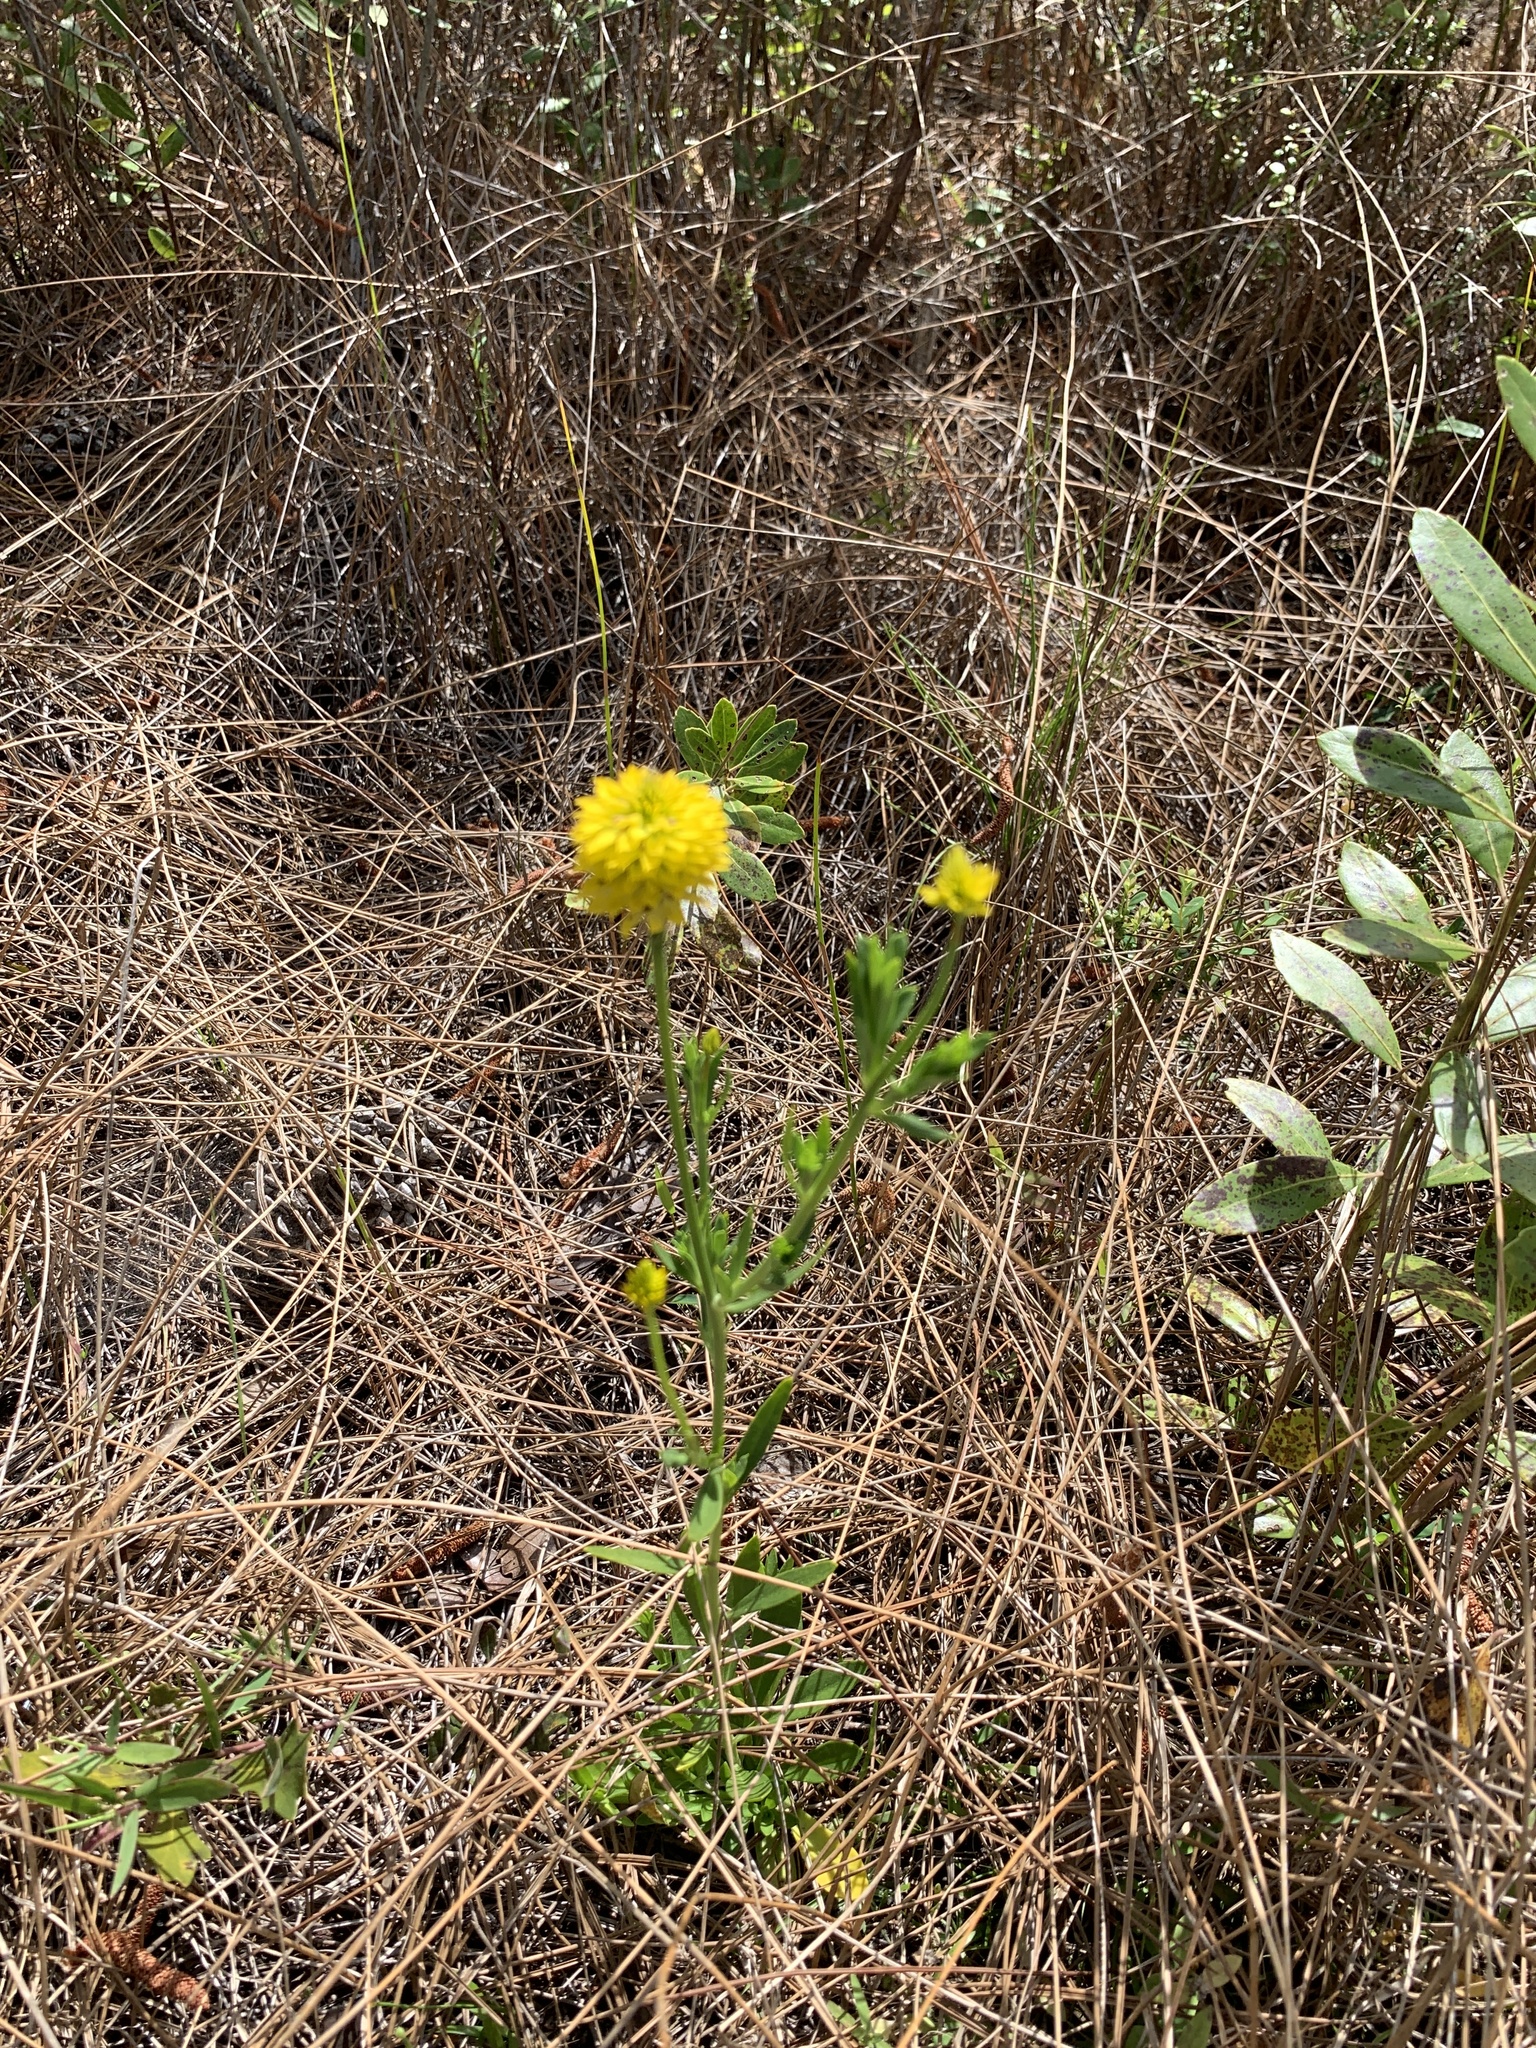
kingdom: Plantae
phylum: Tracheophyta
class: Magnoliopsida
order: Fabales
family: Polygalaceae
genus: Polygala
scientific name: Polygala rugelii
